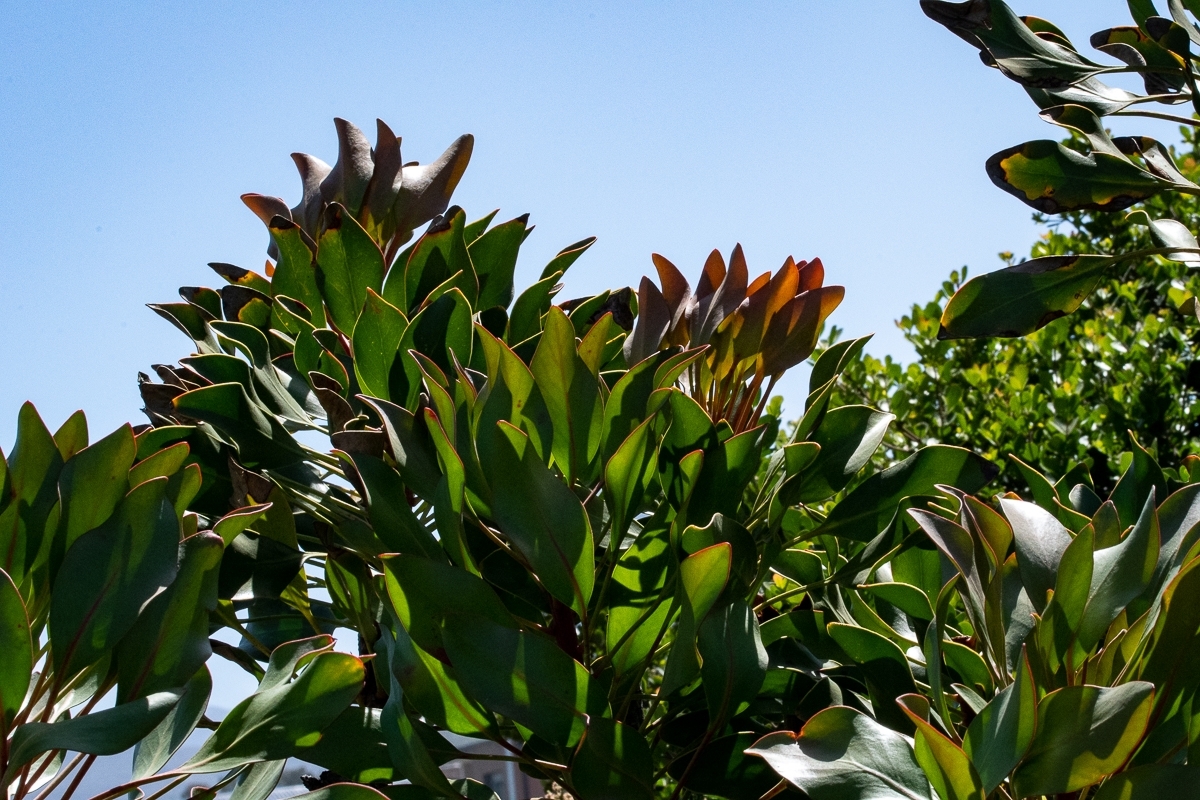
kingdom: Plantae
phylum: Tracheophyta
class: Magnoliopsida
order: Proteales
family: Proteaceae
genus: Protea
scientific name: Protea cynaroides
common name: King protea
